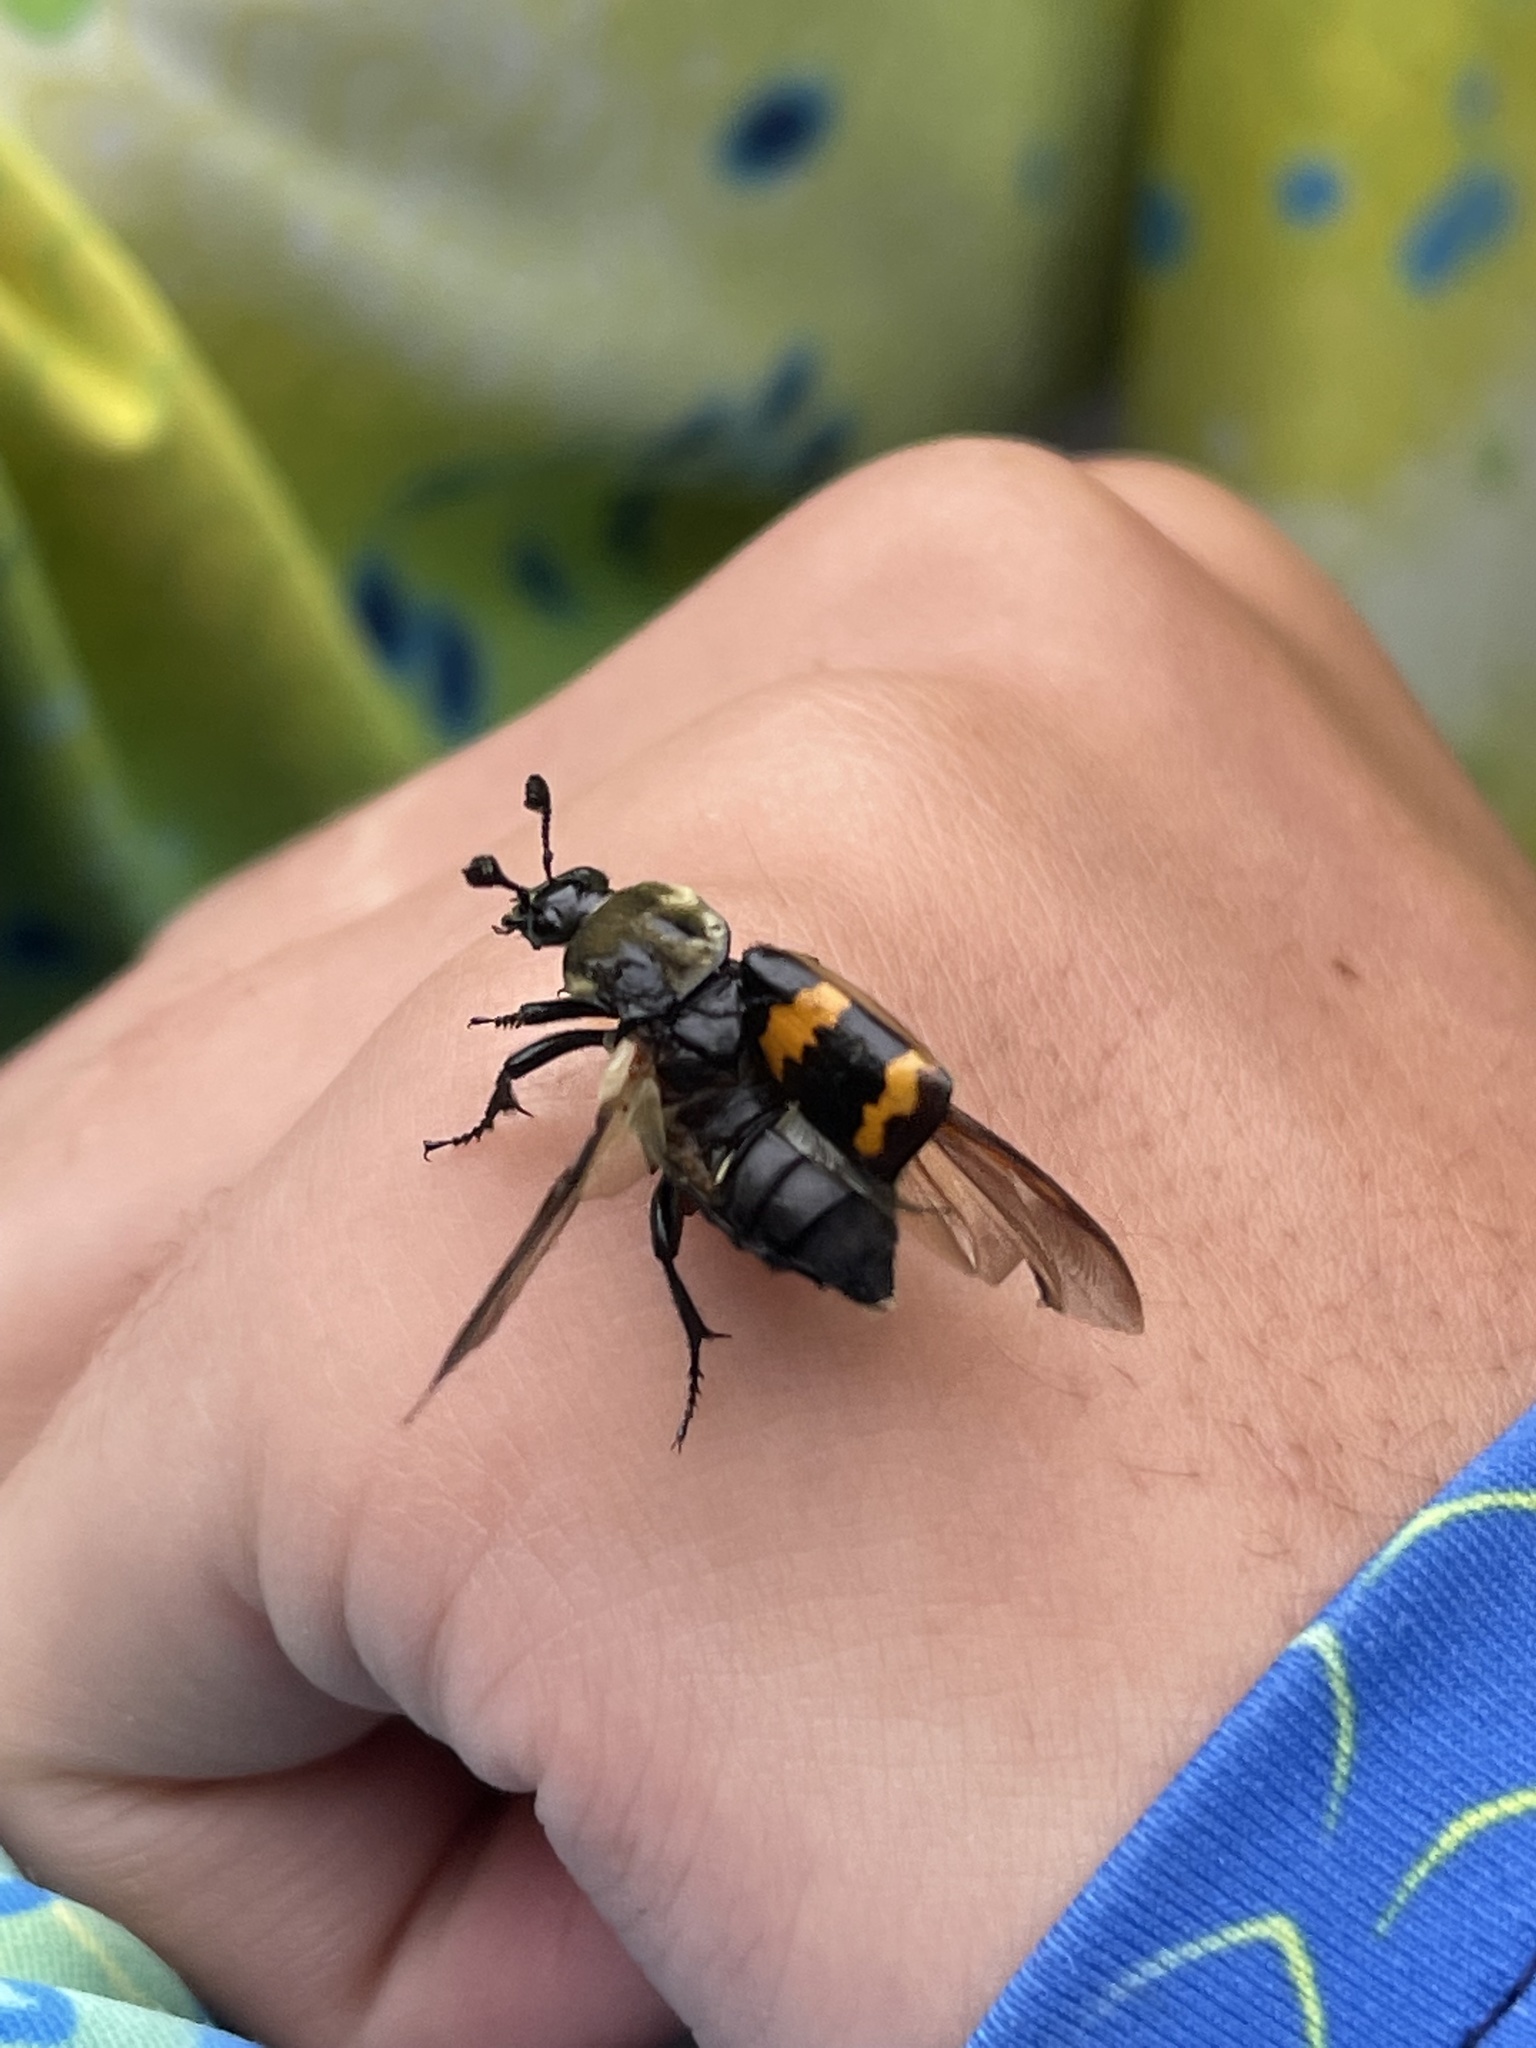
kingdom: Animalia
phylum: Arthropoda
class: Insecta
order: Coleoptera
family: Staphylinidae
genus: Nicrophorus
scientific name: Nicrophorus tomentosus
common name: Tomentose burying beetle
